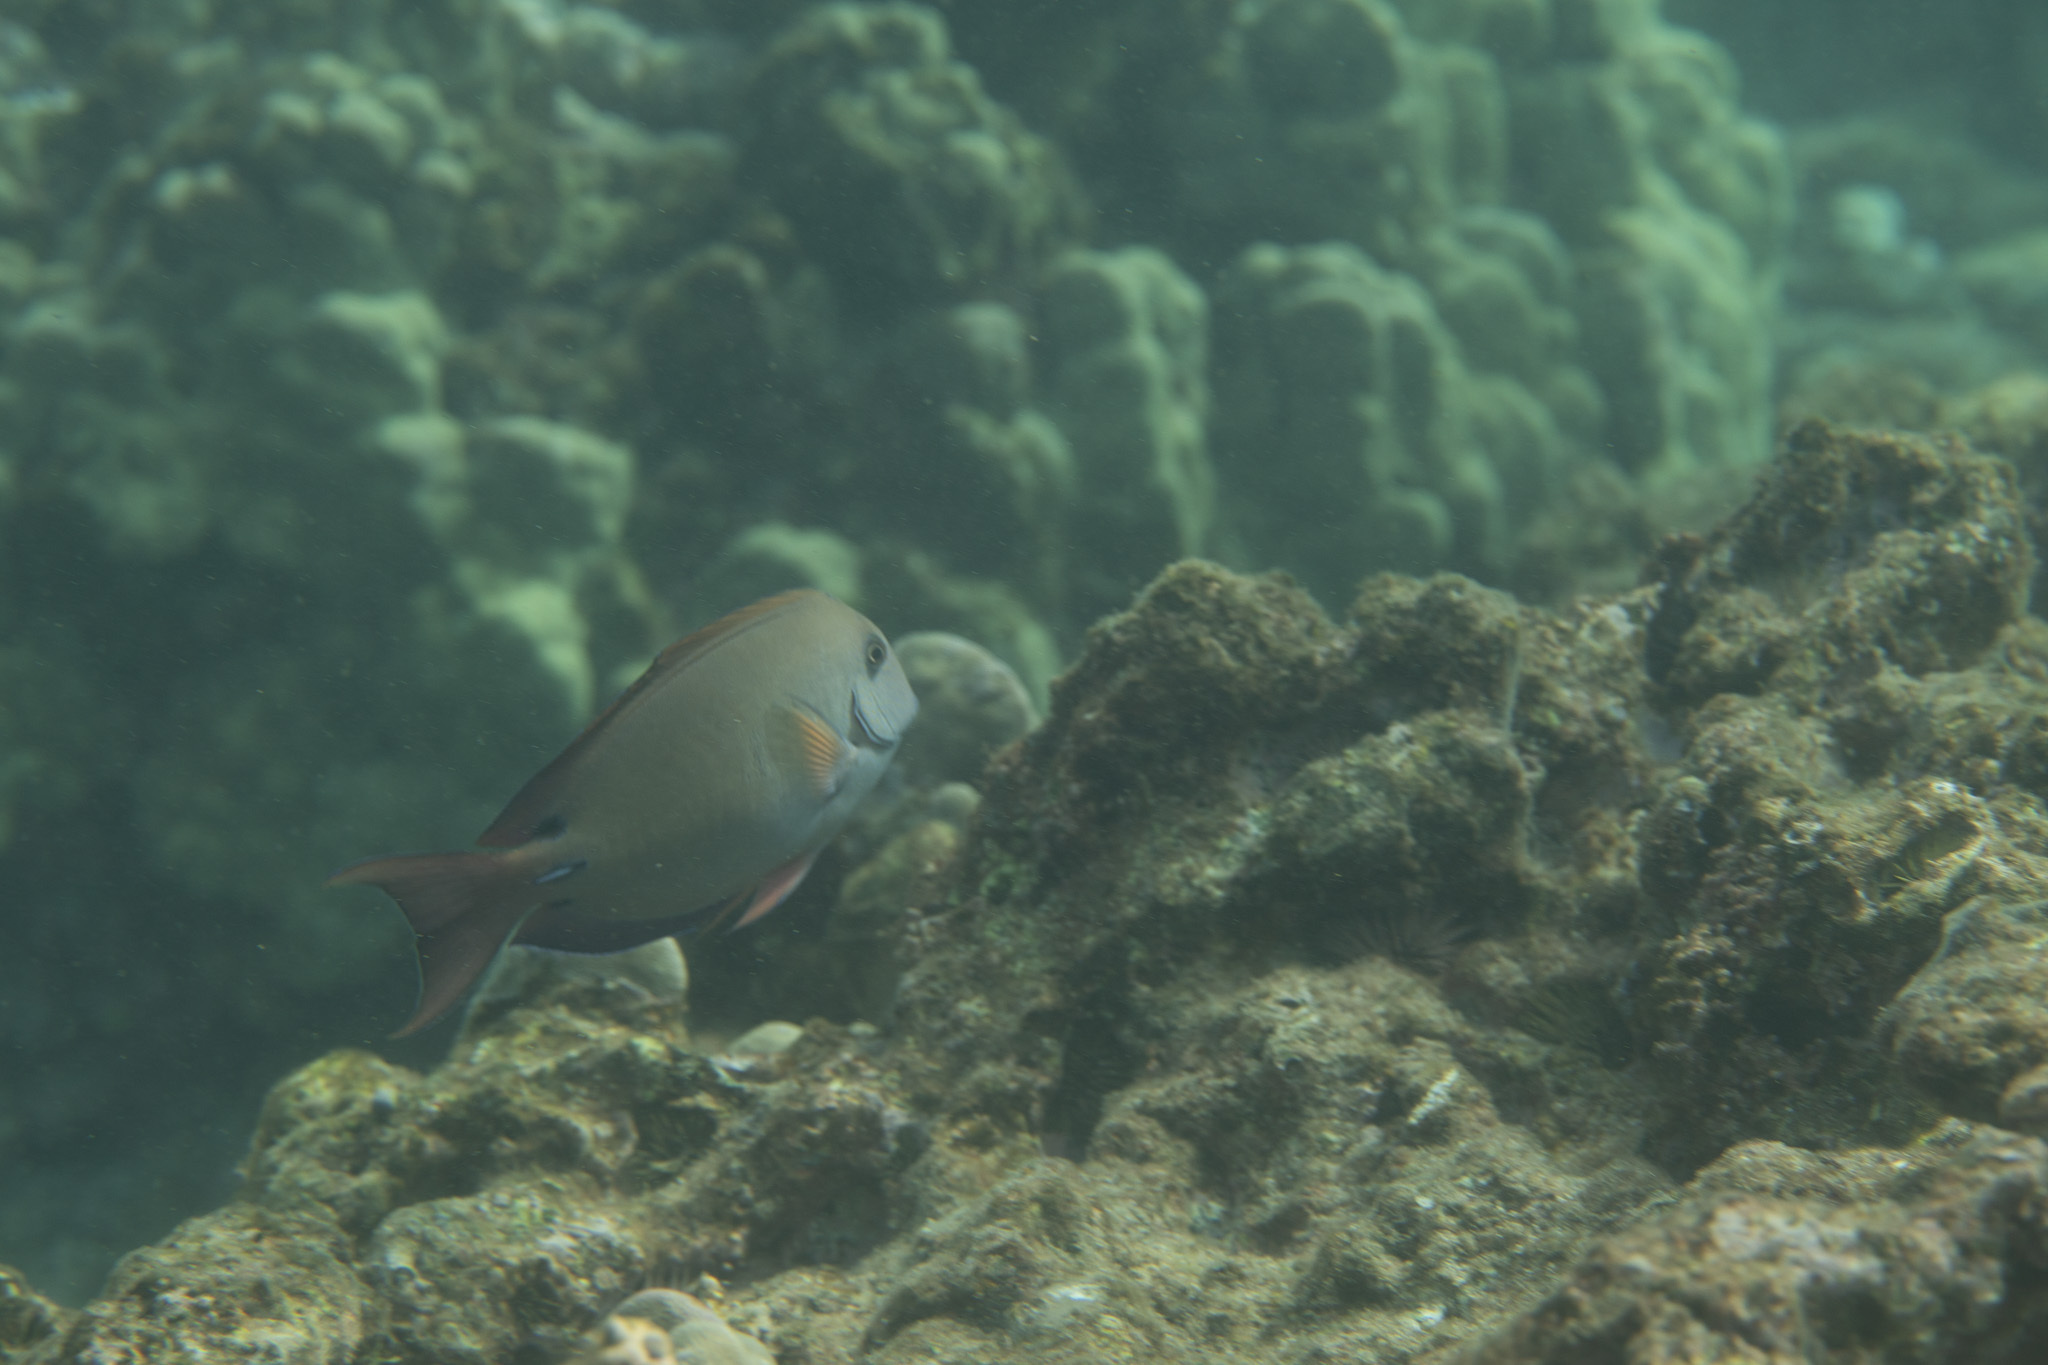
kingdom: Animalia
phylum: Chordata
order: Perciformes
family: Acanthuridae
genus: Acanthurus
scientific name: Acanthurus nigrofuscus
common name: Blackspot surgeonfish
